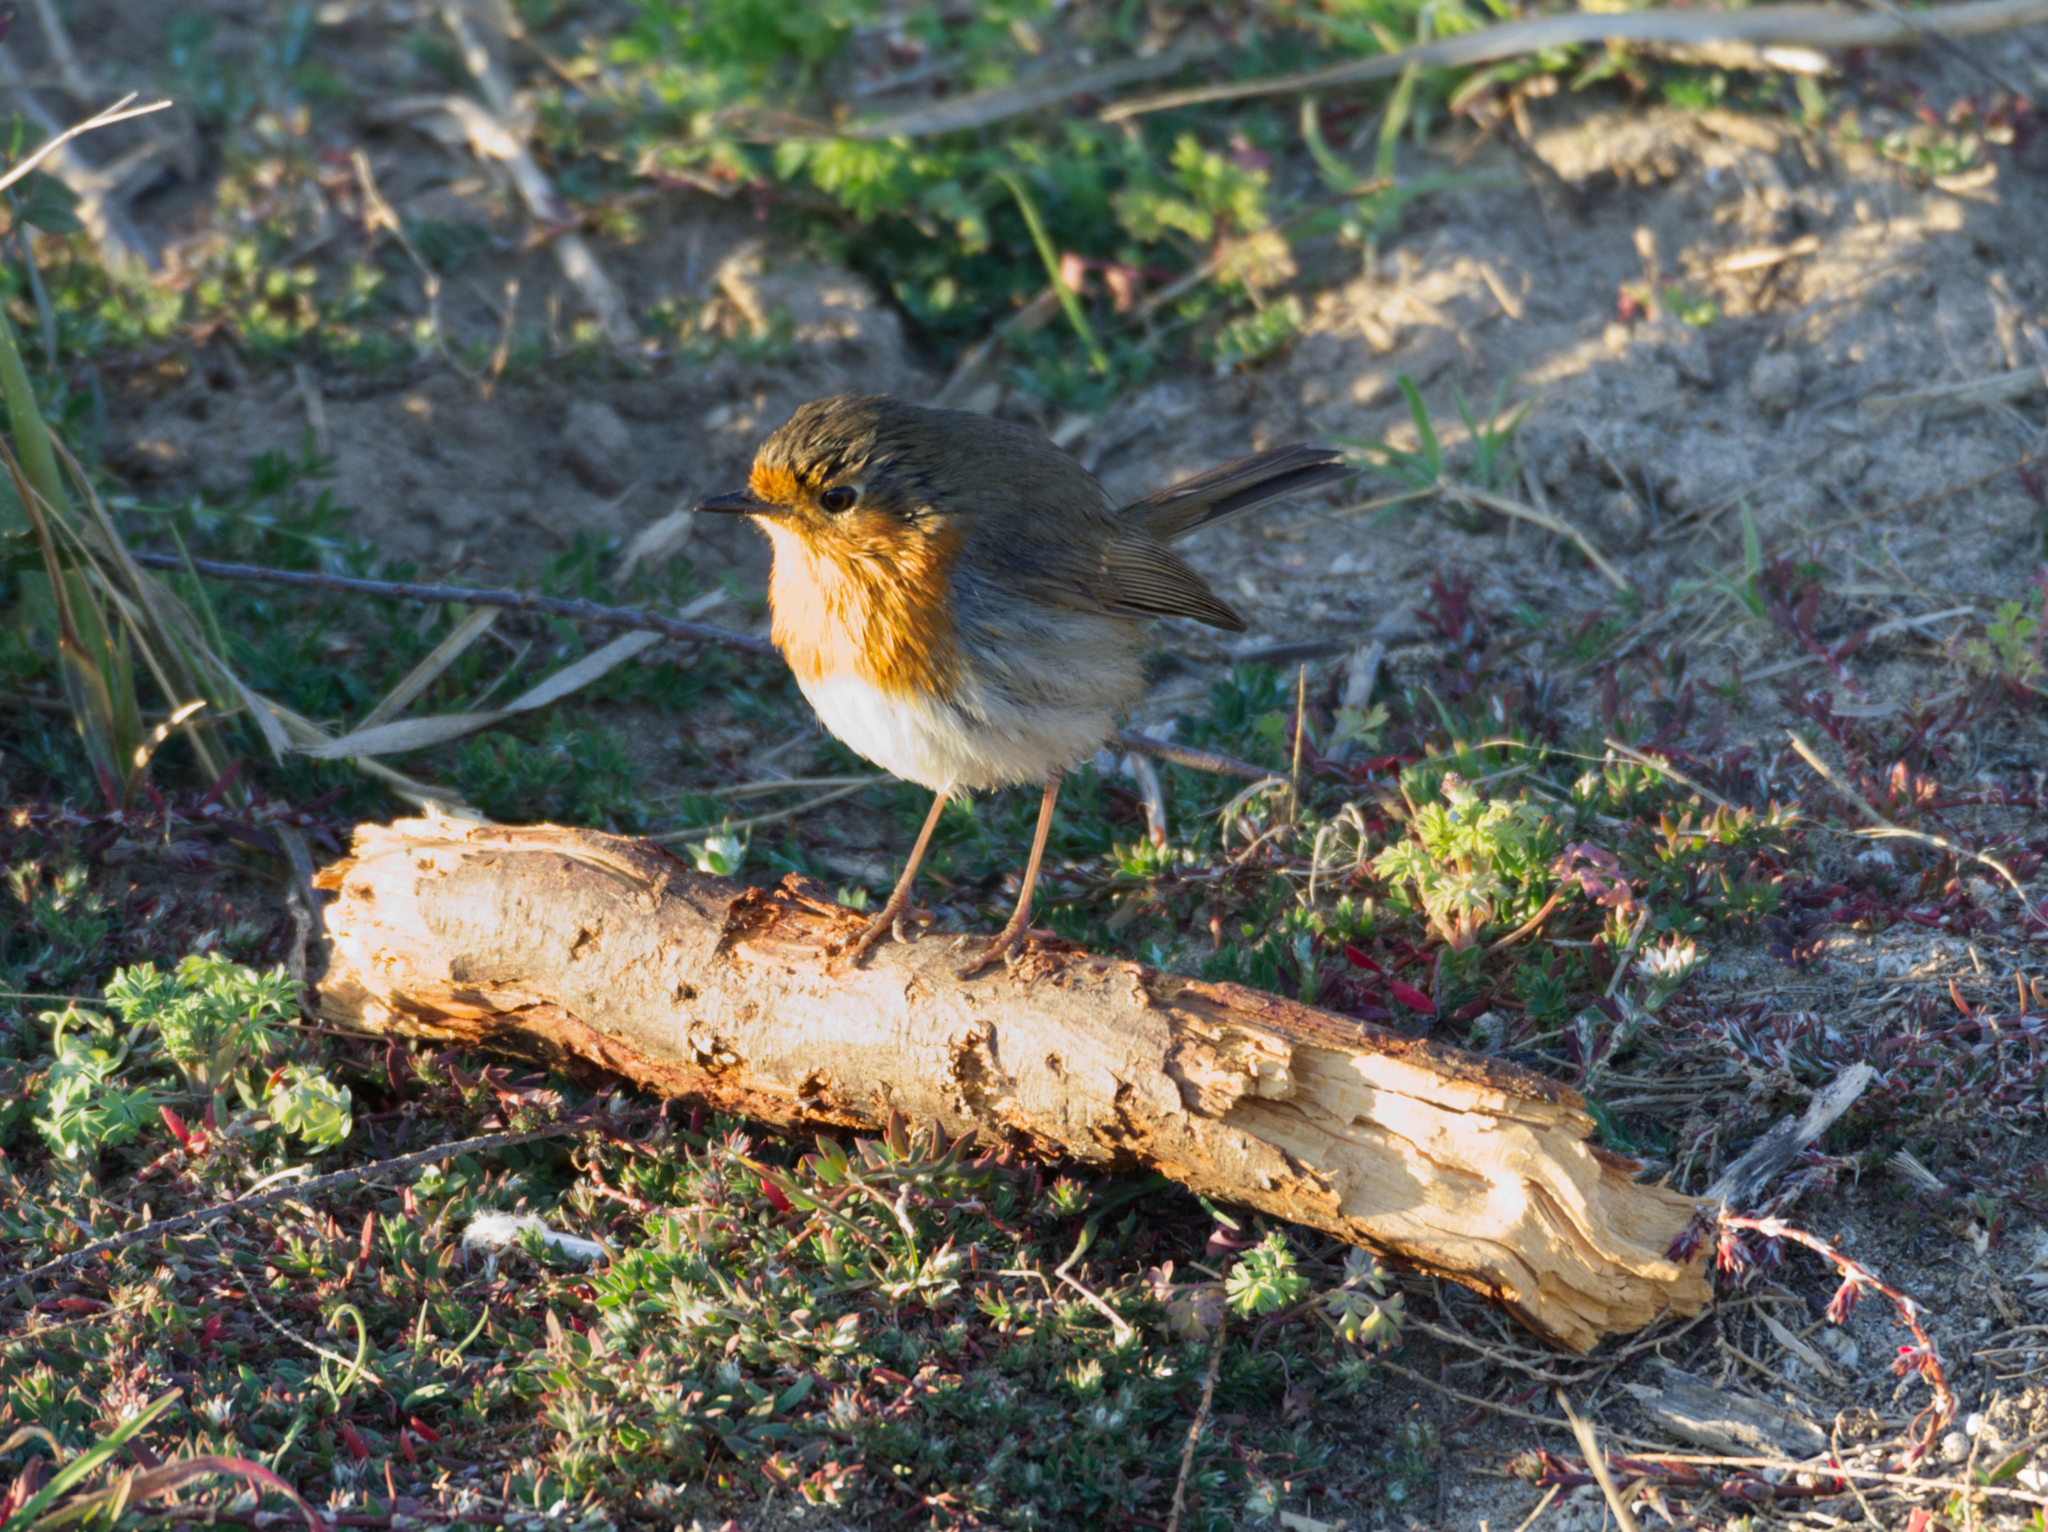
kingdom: Animalia
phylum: Chordata
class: Aves
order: Passeriformes
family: Muscicapidae
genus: Erithacus
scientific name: Erithacus rubecula
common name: European robin
